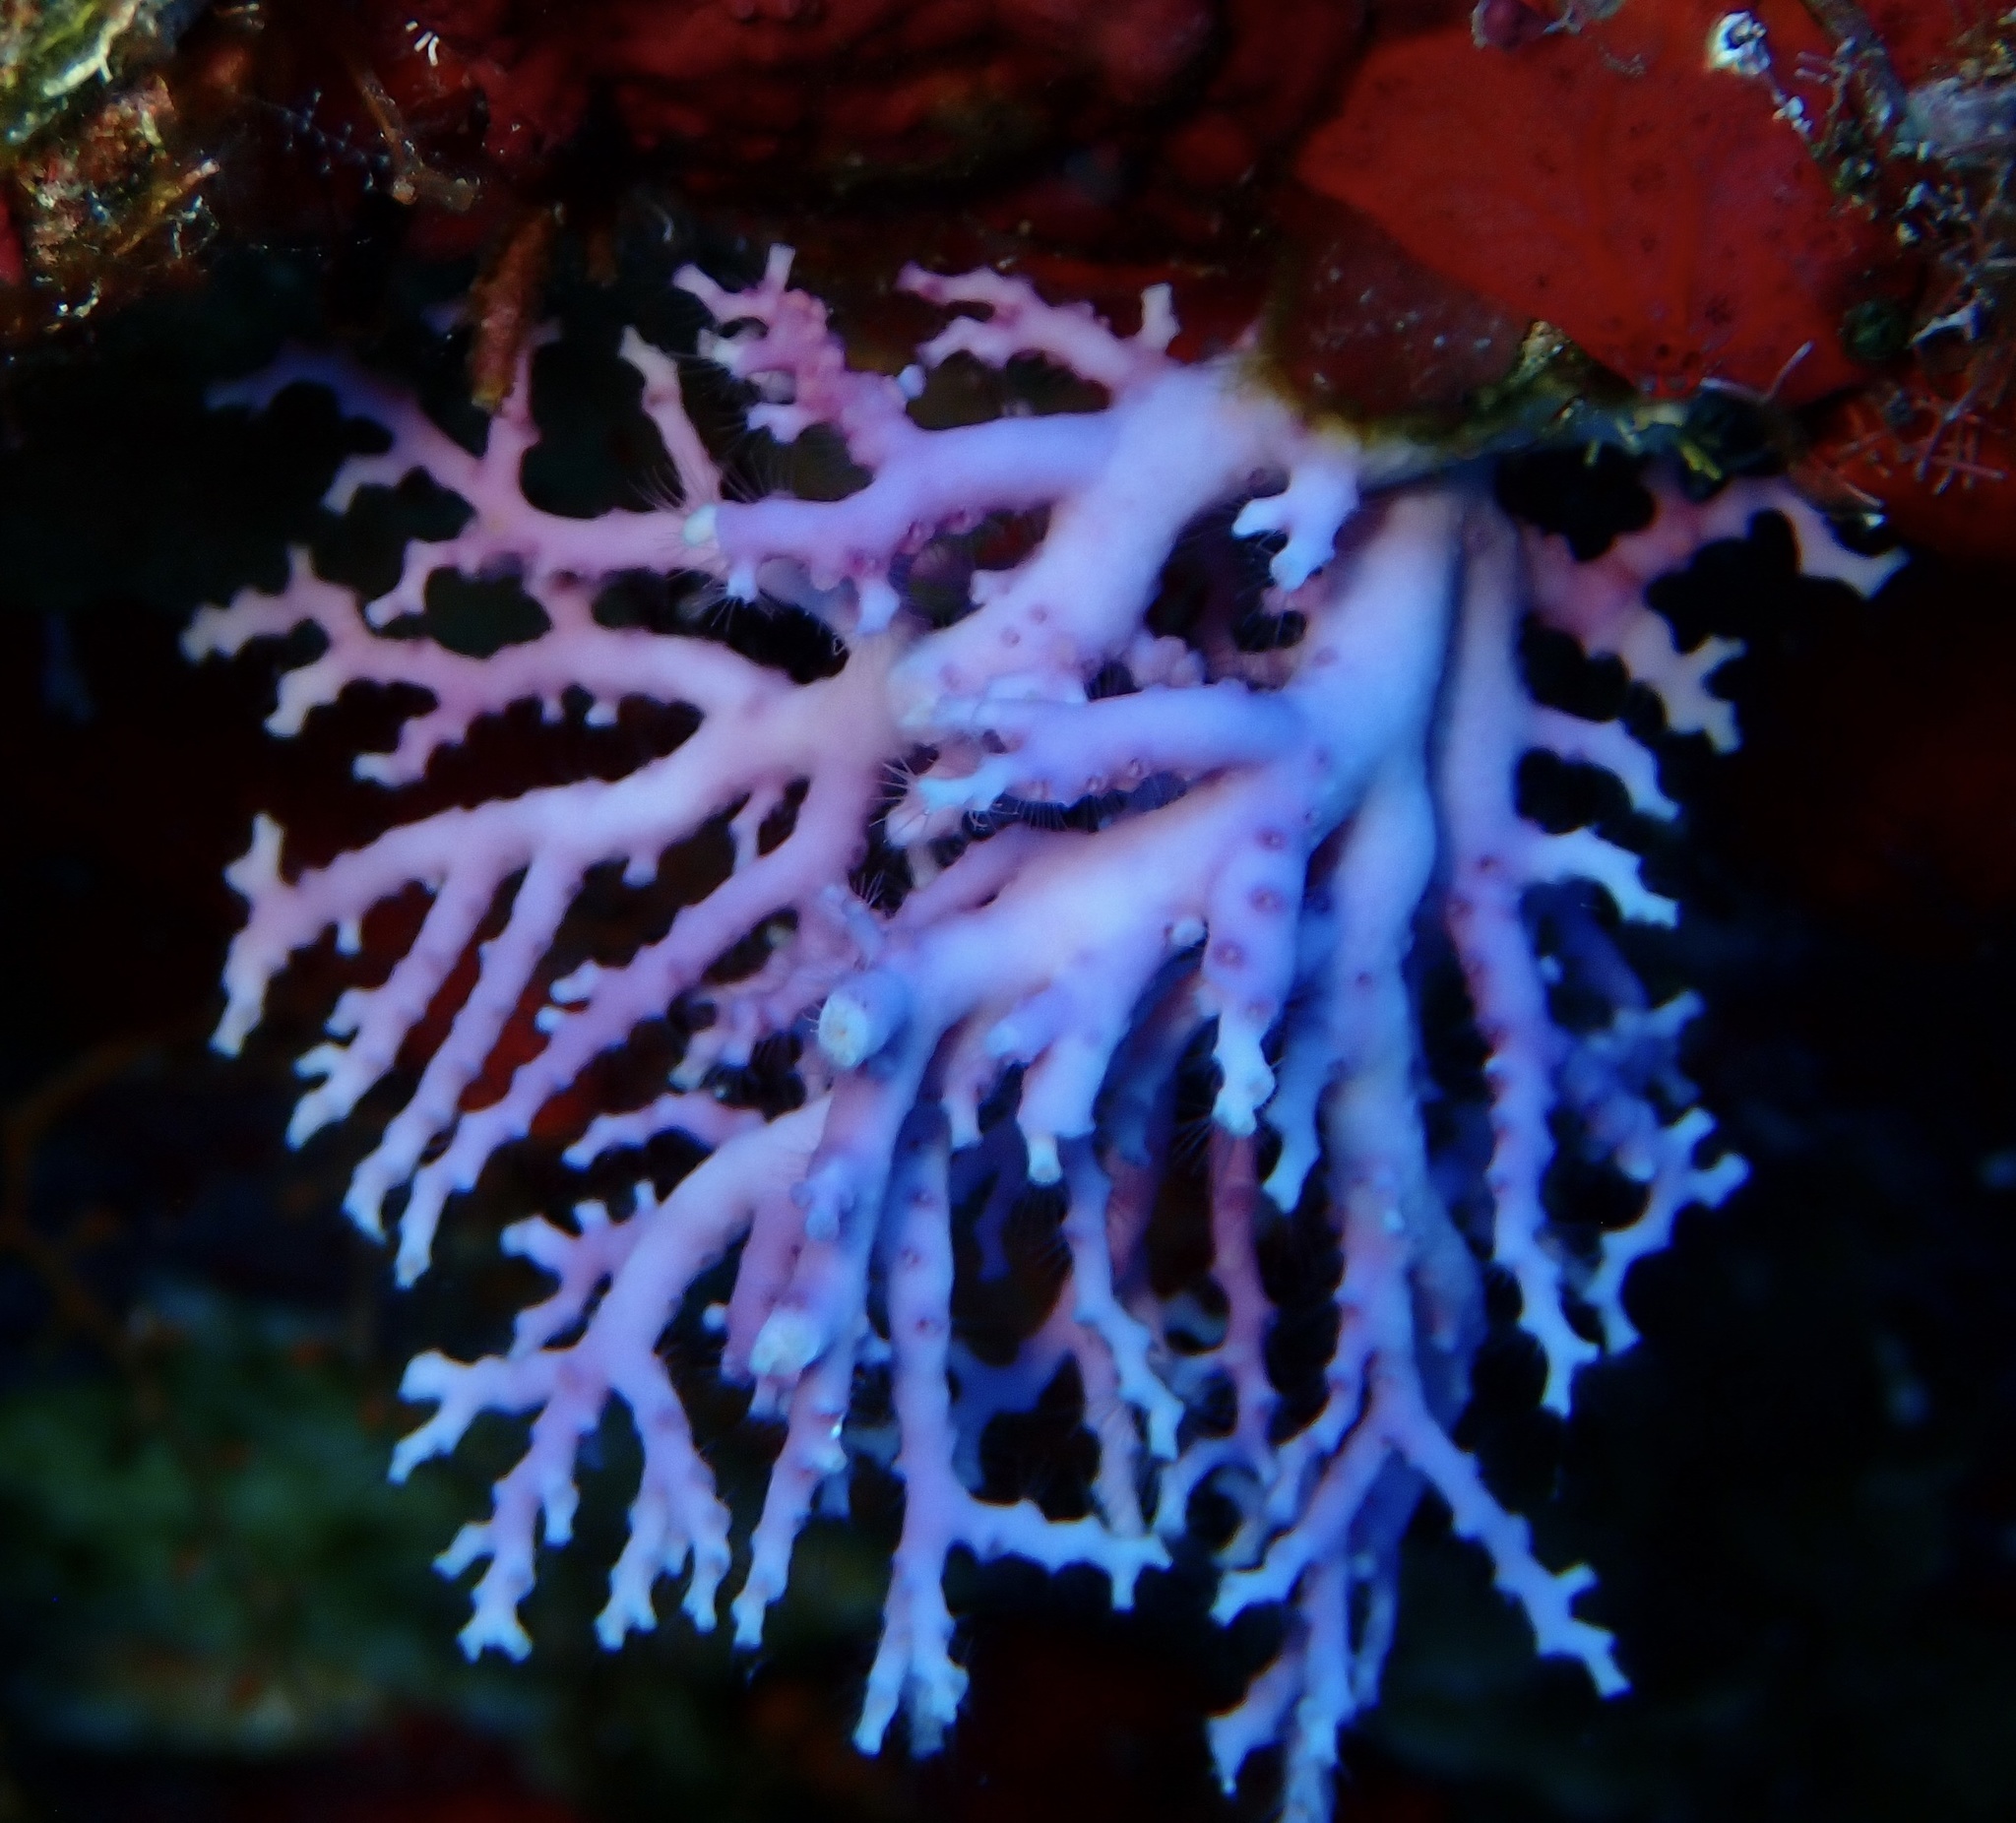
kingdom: Animalia
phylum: Cnidaria
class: Hydrozoa
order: Anthoathecata
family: Stylasteridae
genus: Stylaster
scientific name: Stylaster roseus
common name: Rose lace coral
